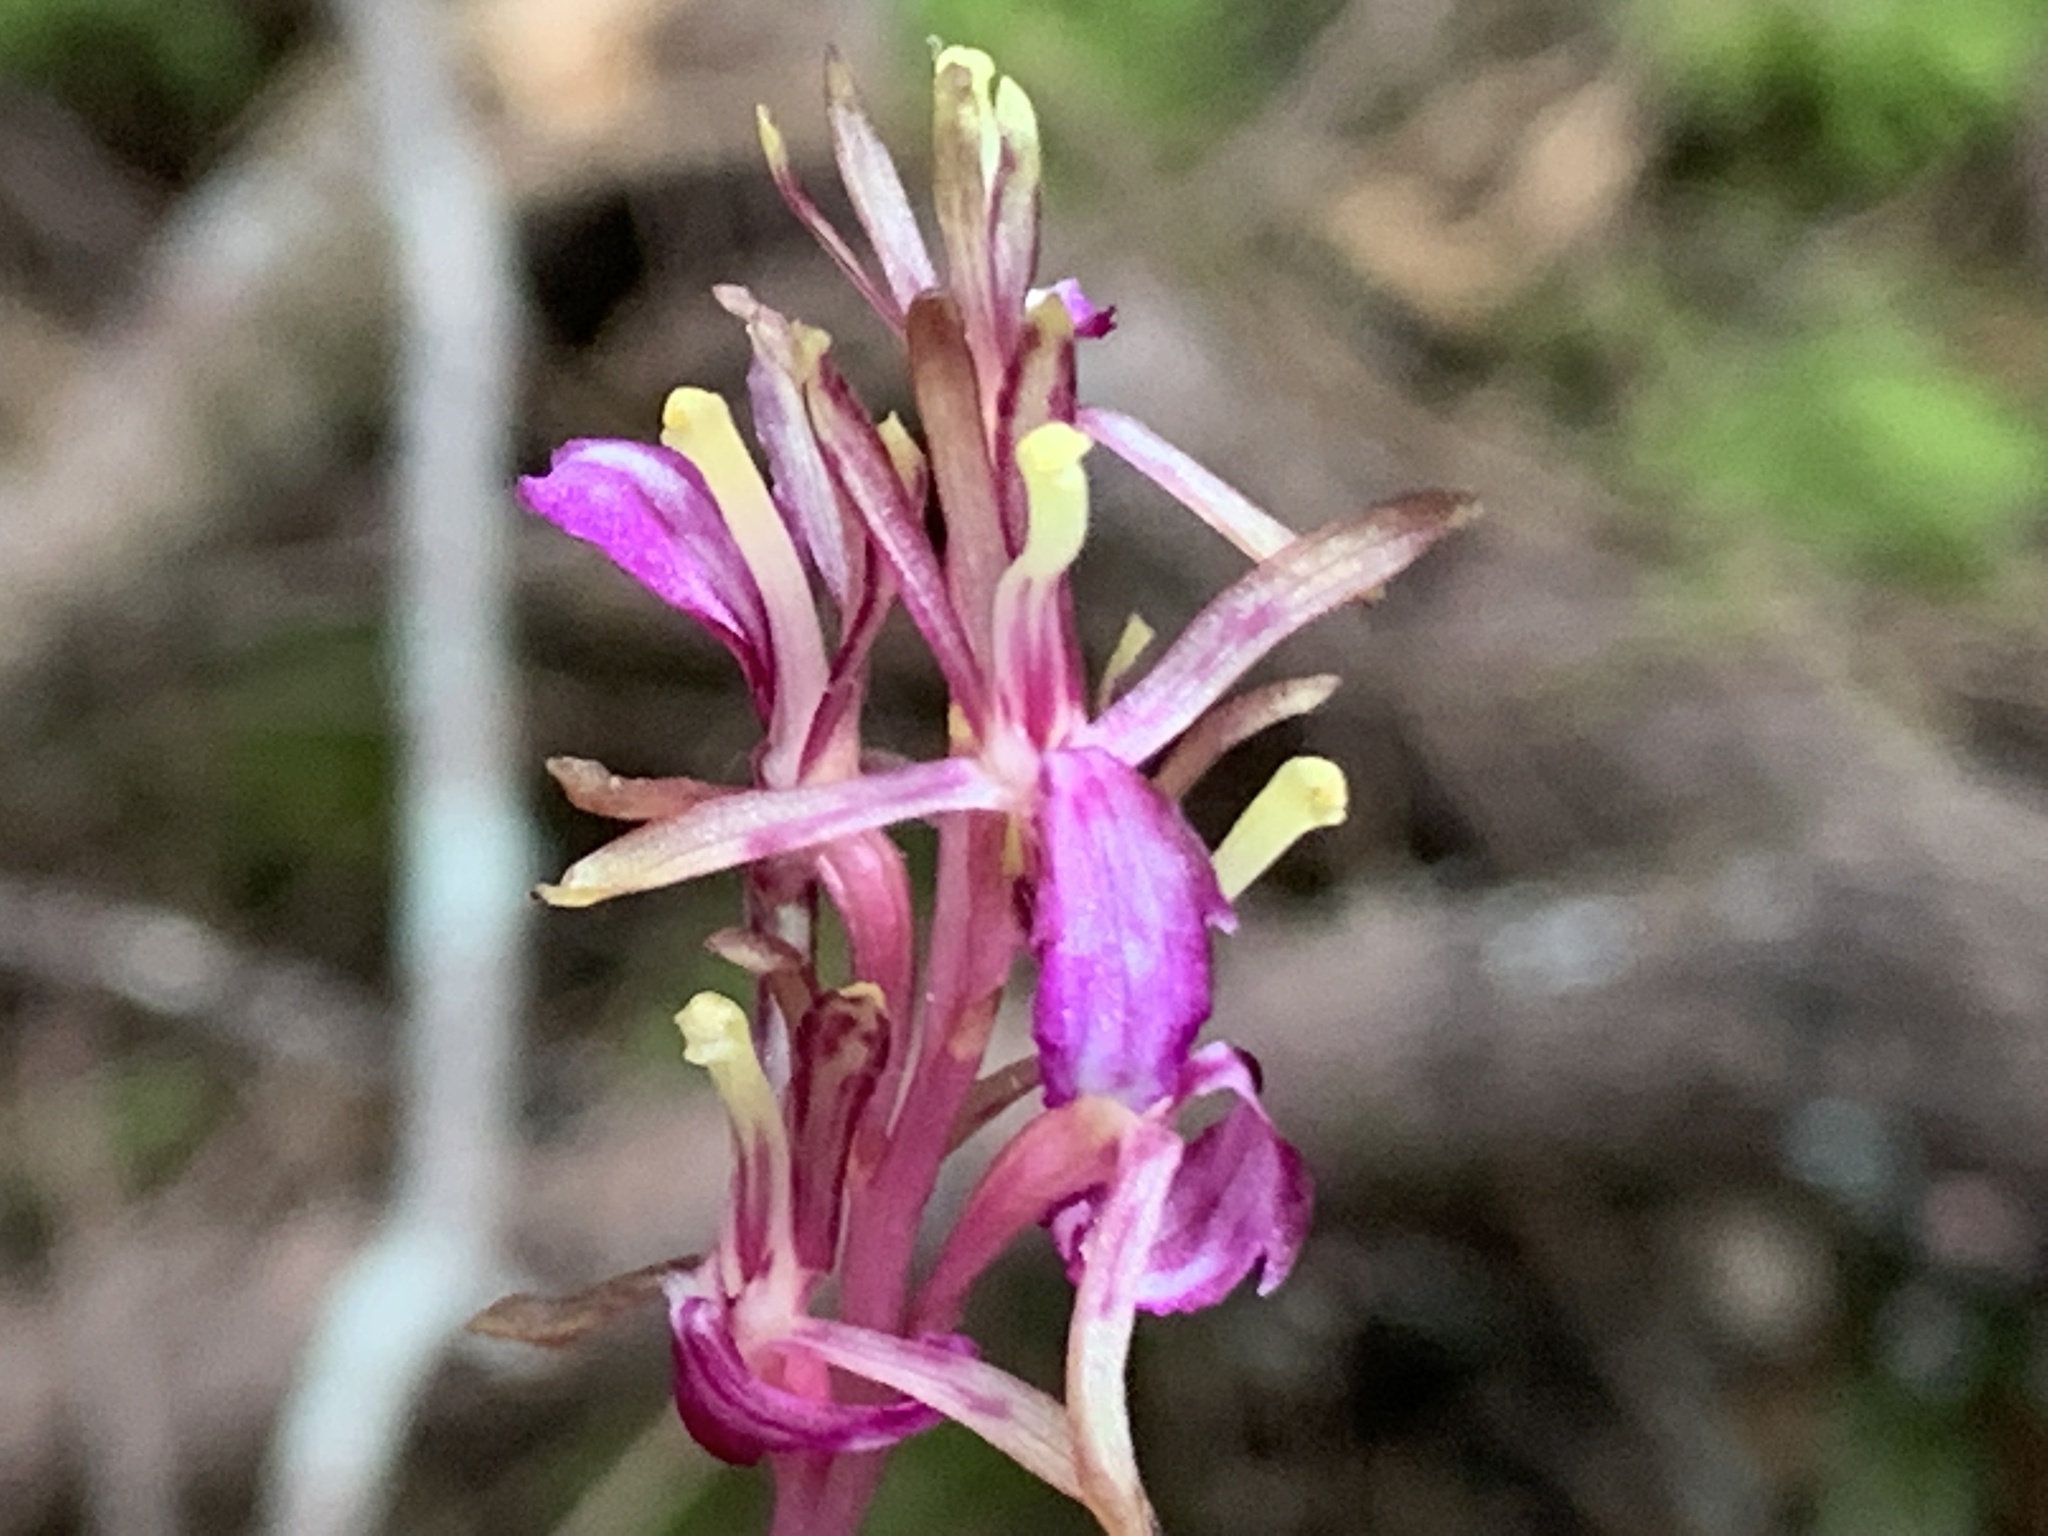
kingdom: Plantae
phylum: Tracheophyta
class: Liliopsida
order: Asparagales
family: Orchidaceae
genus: Corallorhiza
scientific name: Corallorhiza mertensiana
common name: Pacific coralroot
